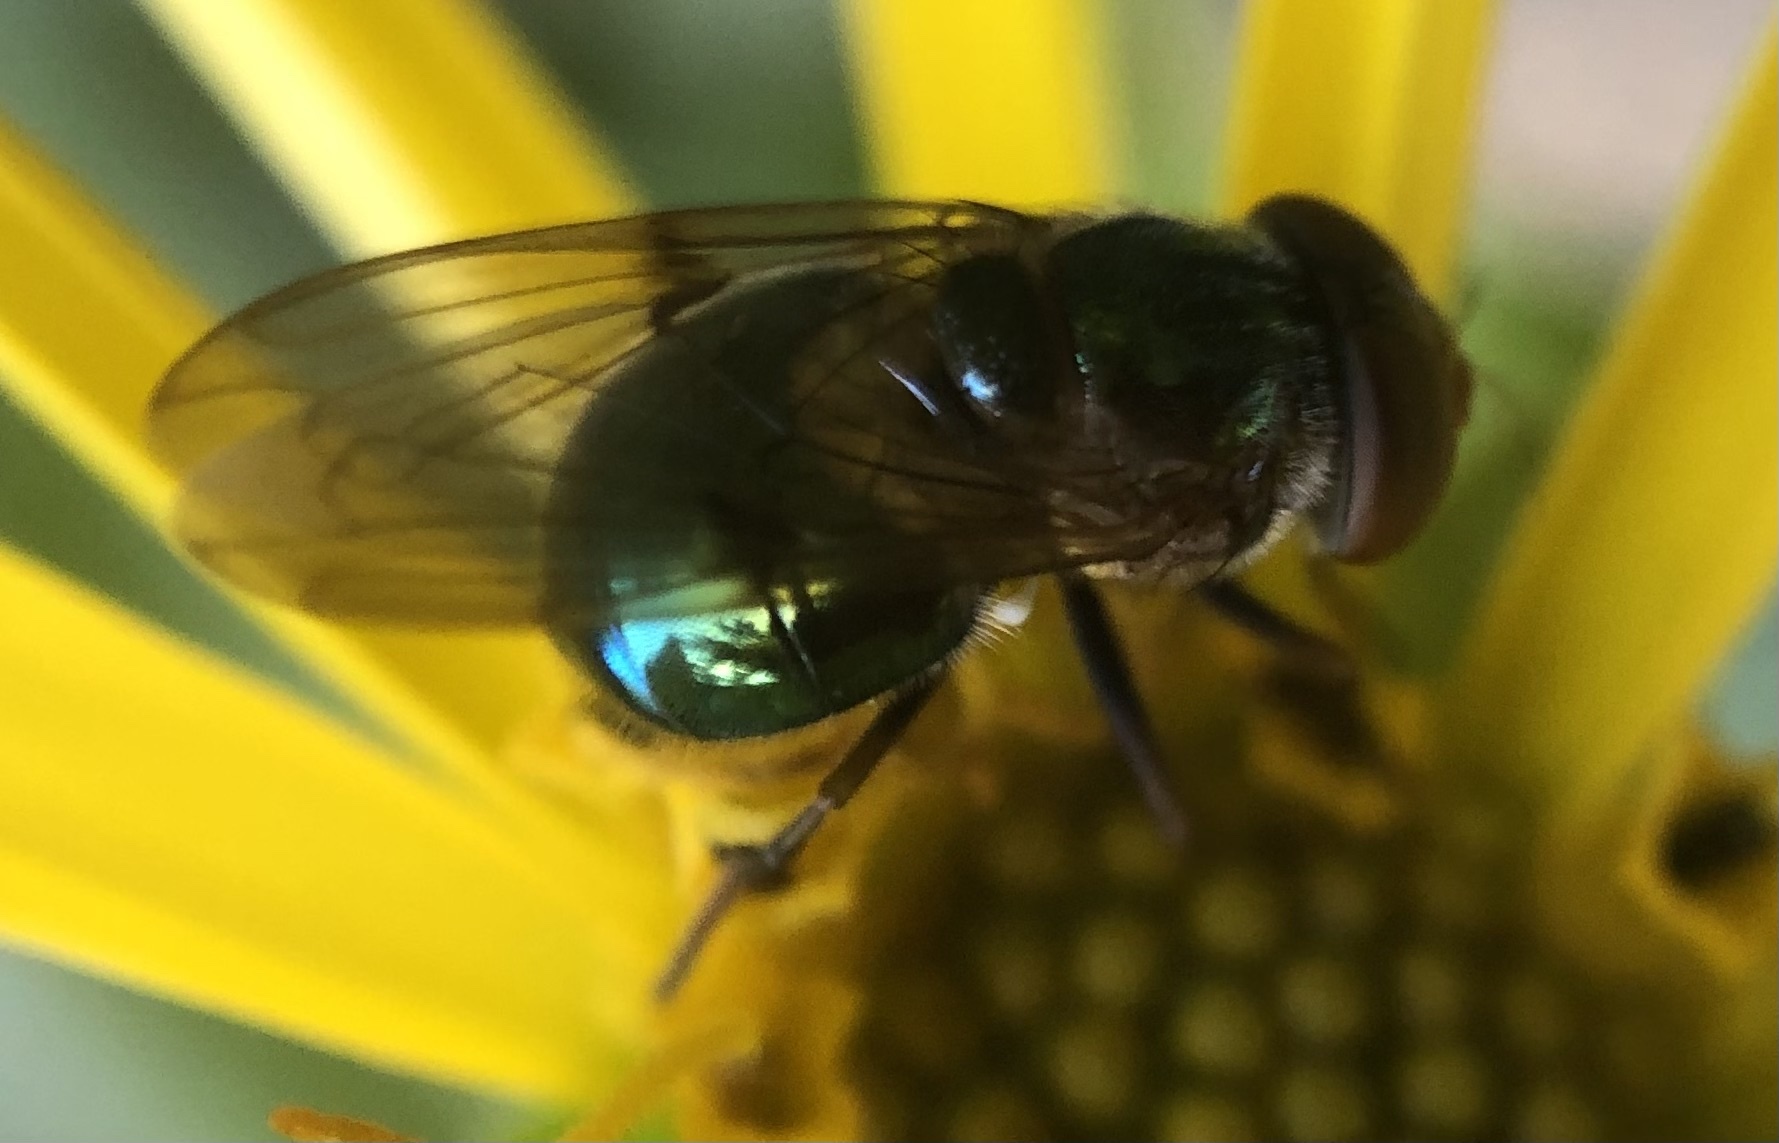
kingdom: Animalia
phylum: Arthropoda
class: Insecta
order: Diptera
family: Syrphidae
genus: Copestylum
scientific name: Copestylum vesicularium
